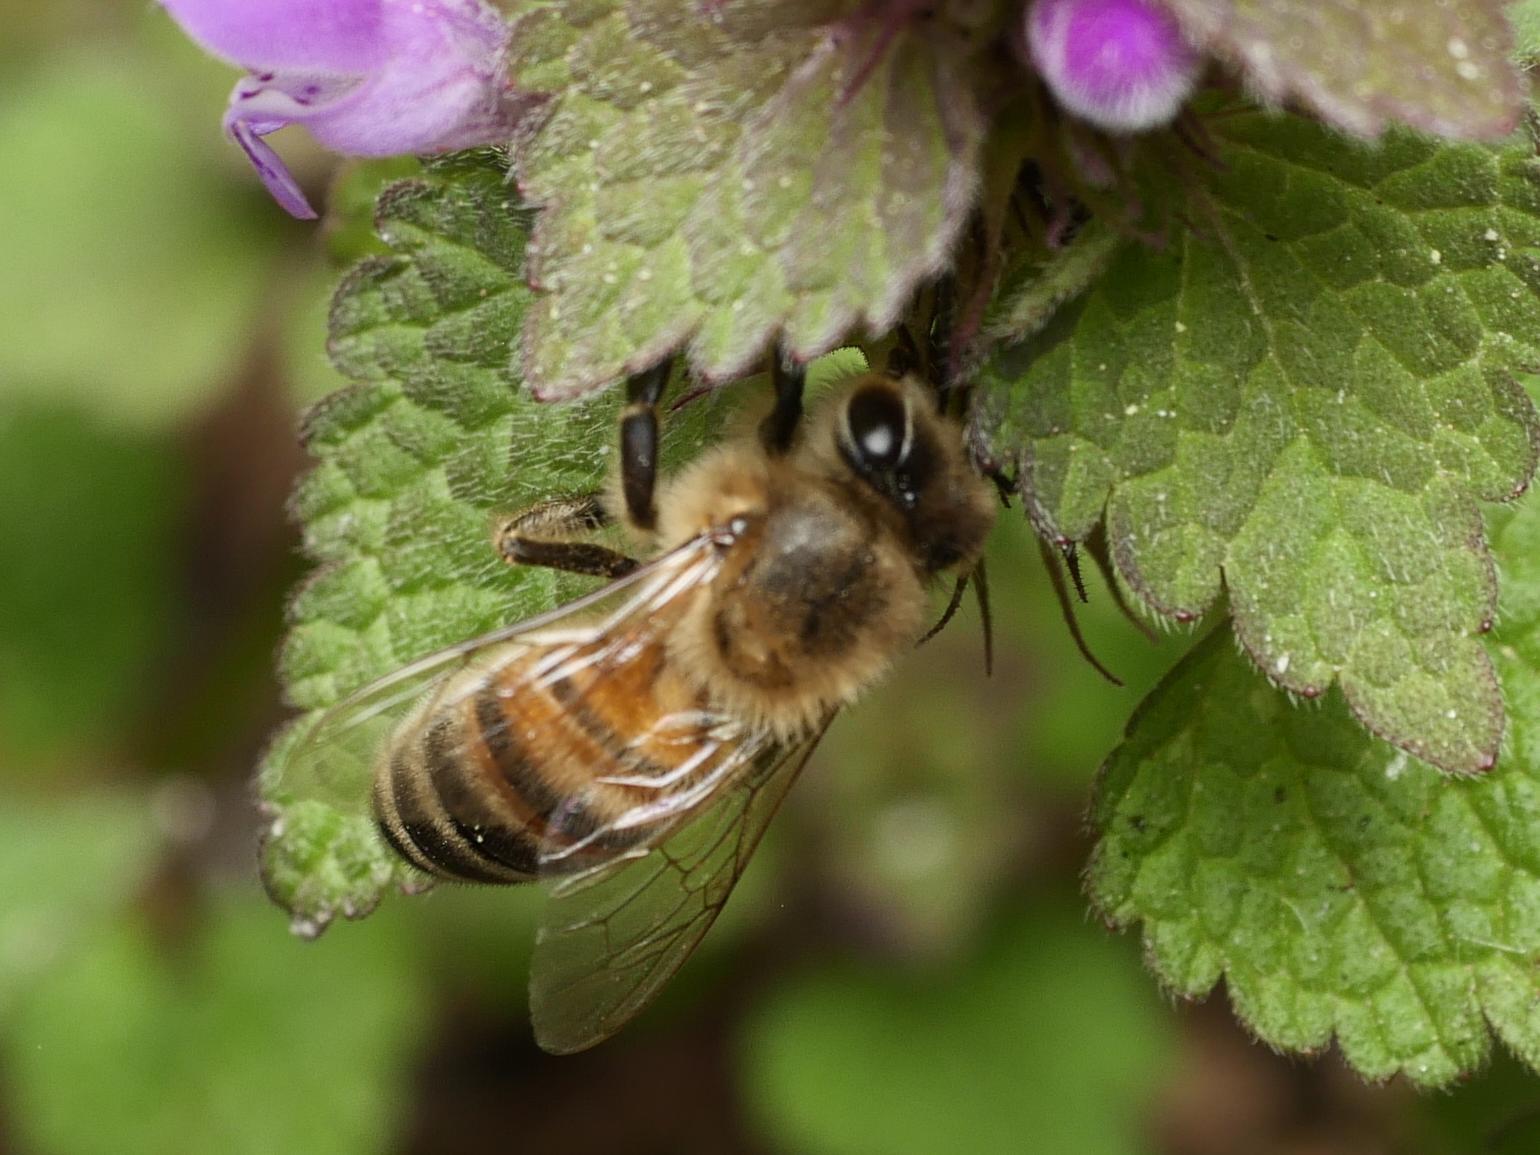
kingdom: Animalia
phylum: Arthropoda
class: Insecta
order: Hymenoptera
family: Apidae
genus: Apis
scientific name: Apis mellifera
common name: Honey bee
